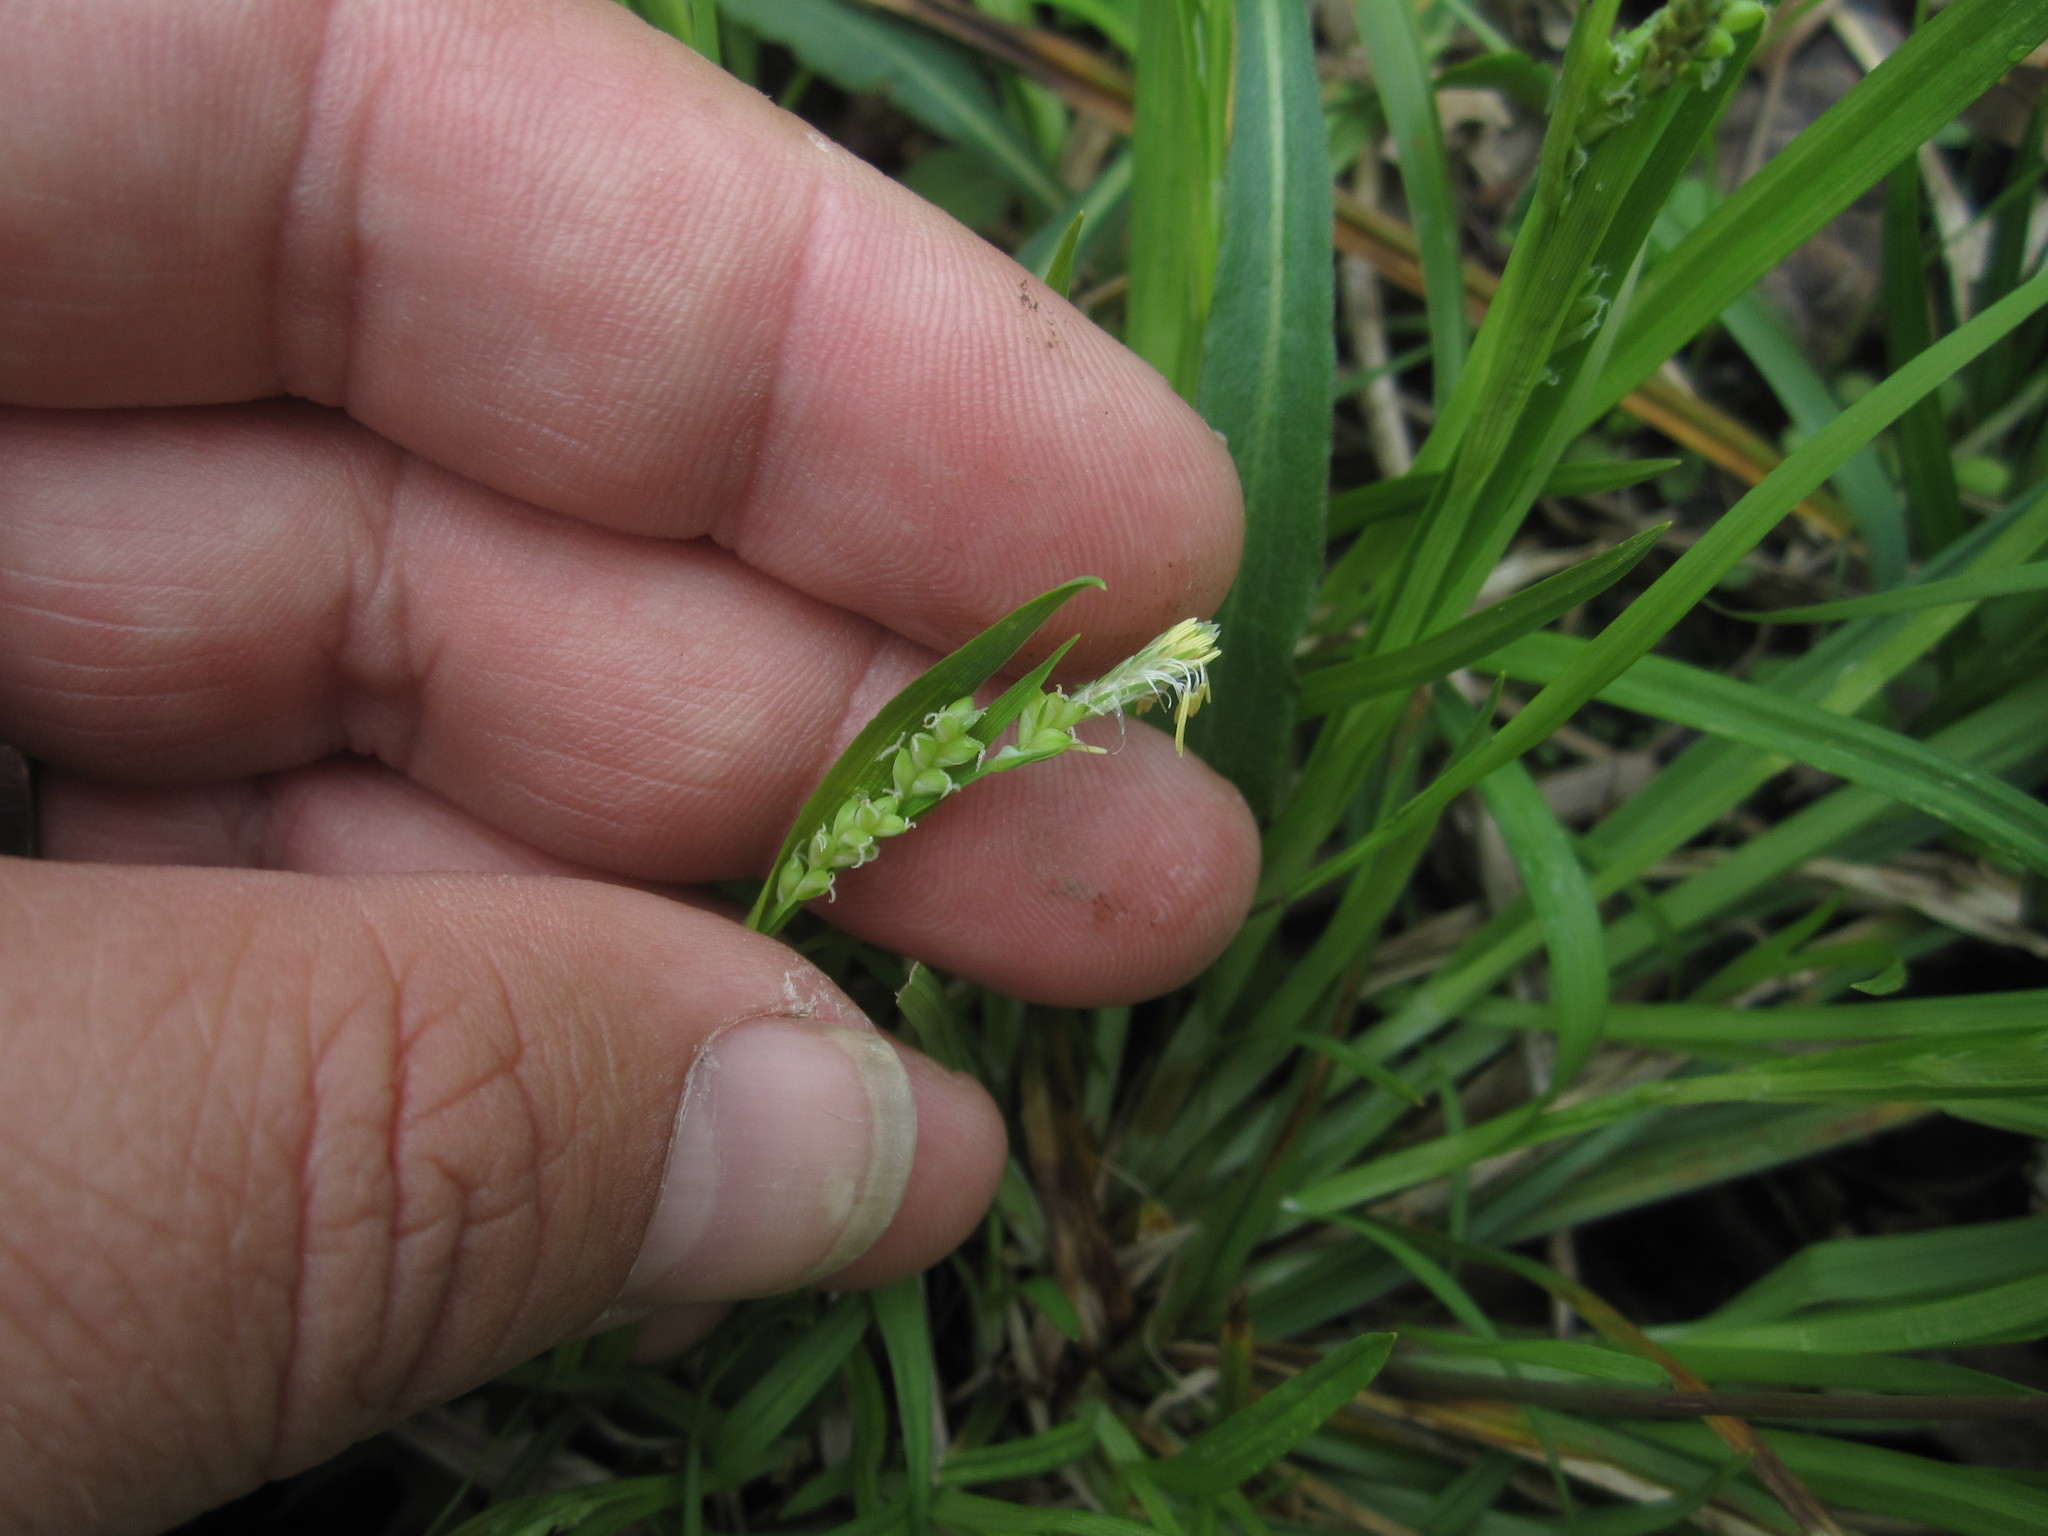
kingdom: Plantae
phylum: Tracheophyta
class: Liliopsida
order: Poales
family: Cyperaceae
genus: Carex
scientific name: Carex blanda
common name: Bland sedge
